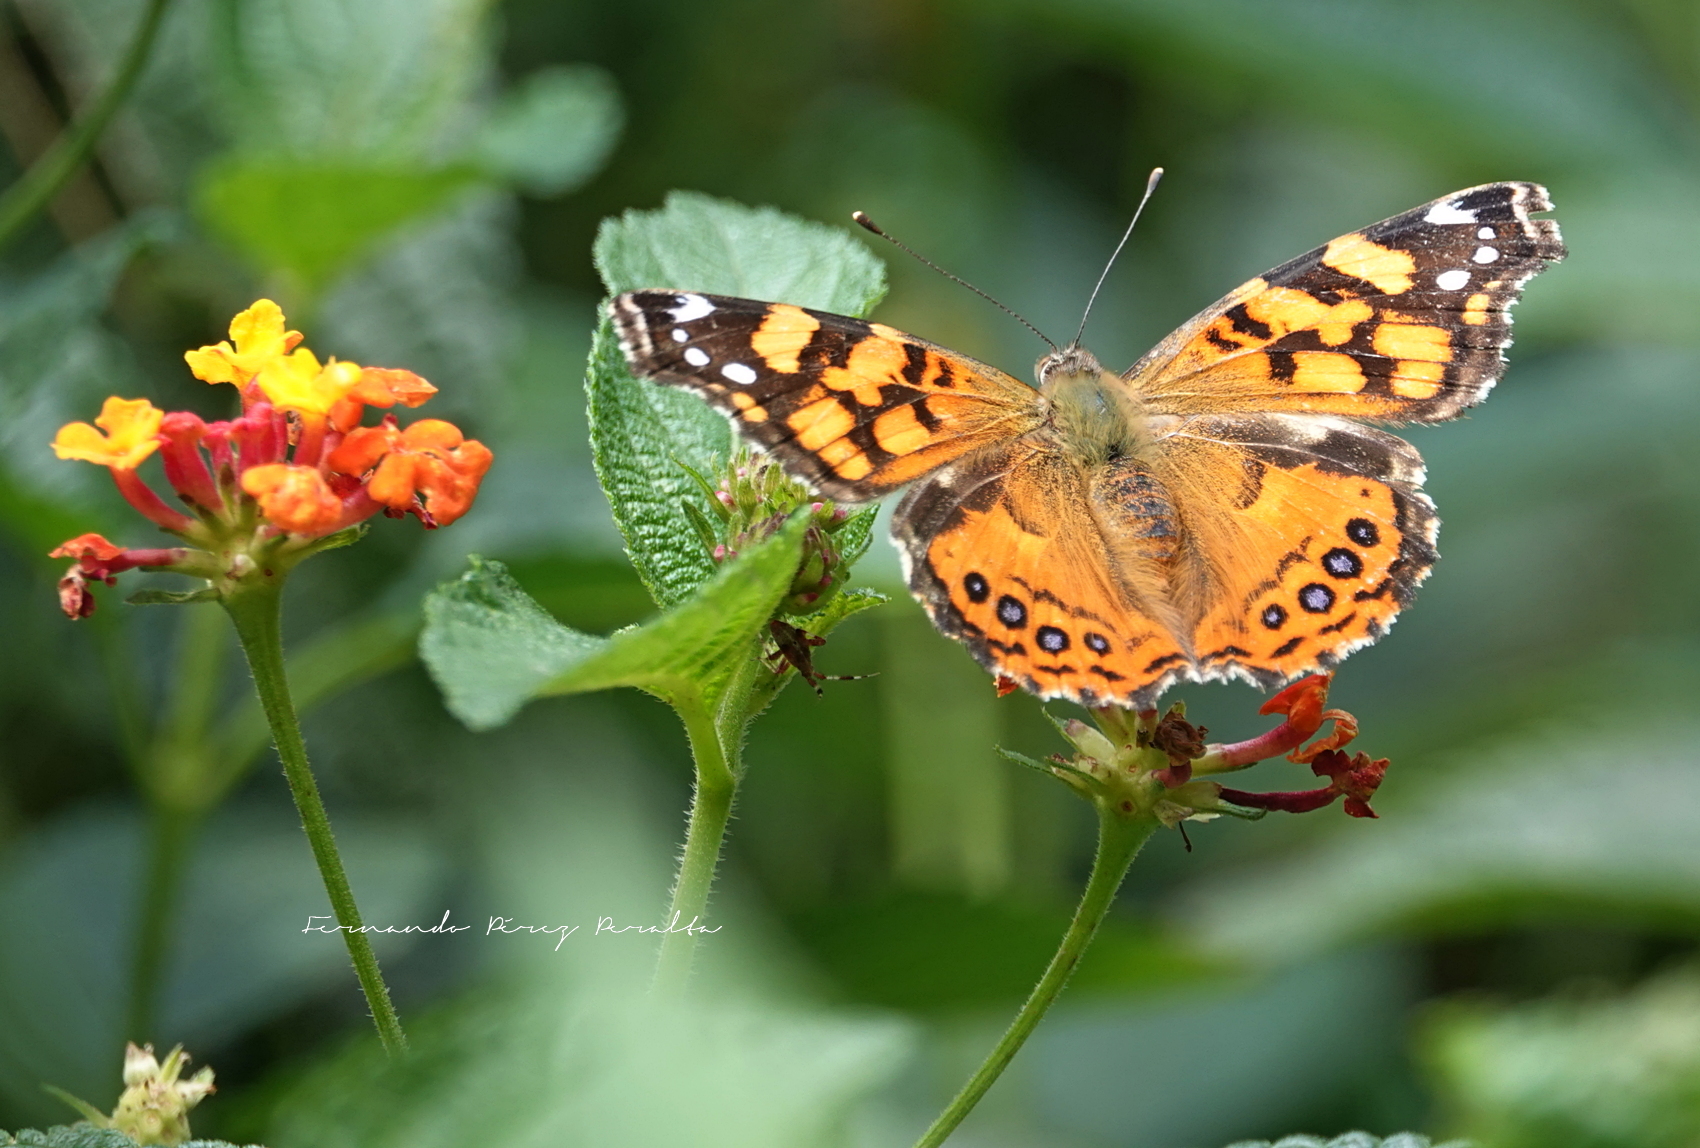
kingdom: Animalia
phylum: Arthropoda
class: Insecta
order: Lepidoptera
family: Nymphalidae
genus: Vanessa
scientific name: Vanessa annabella
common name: West coast lady
